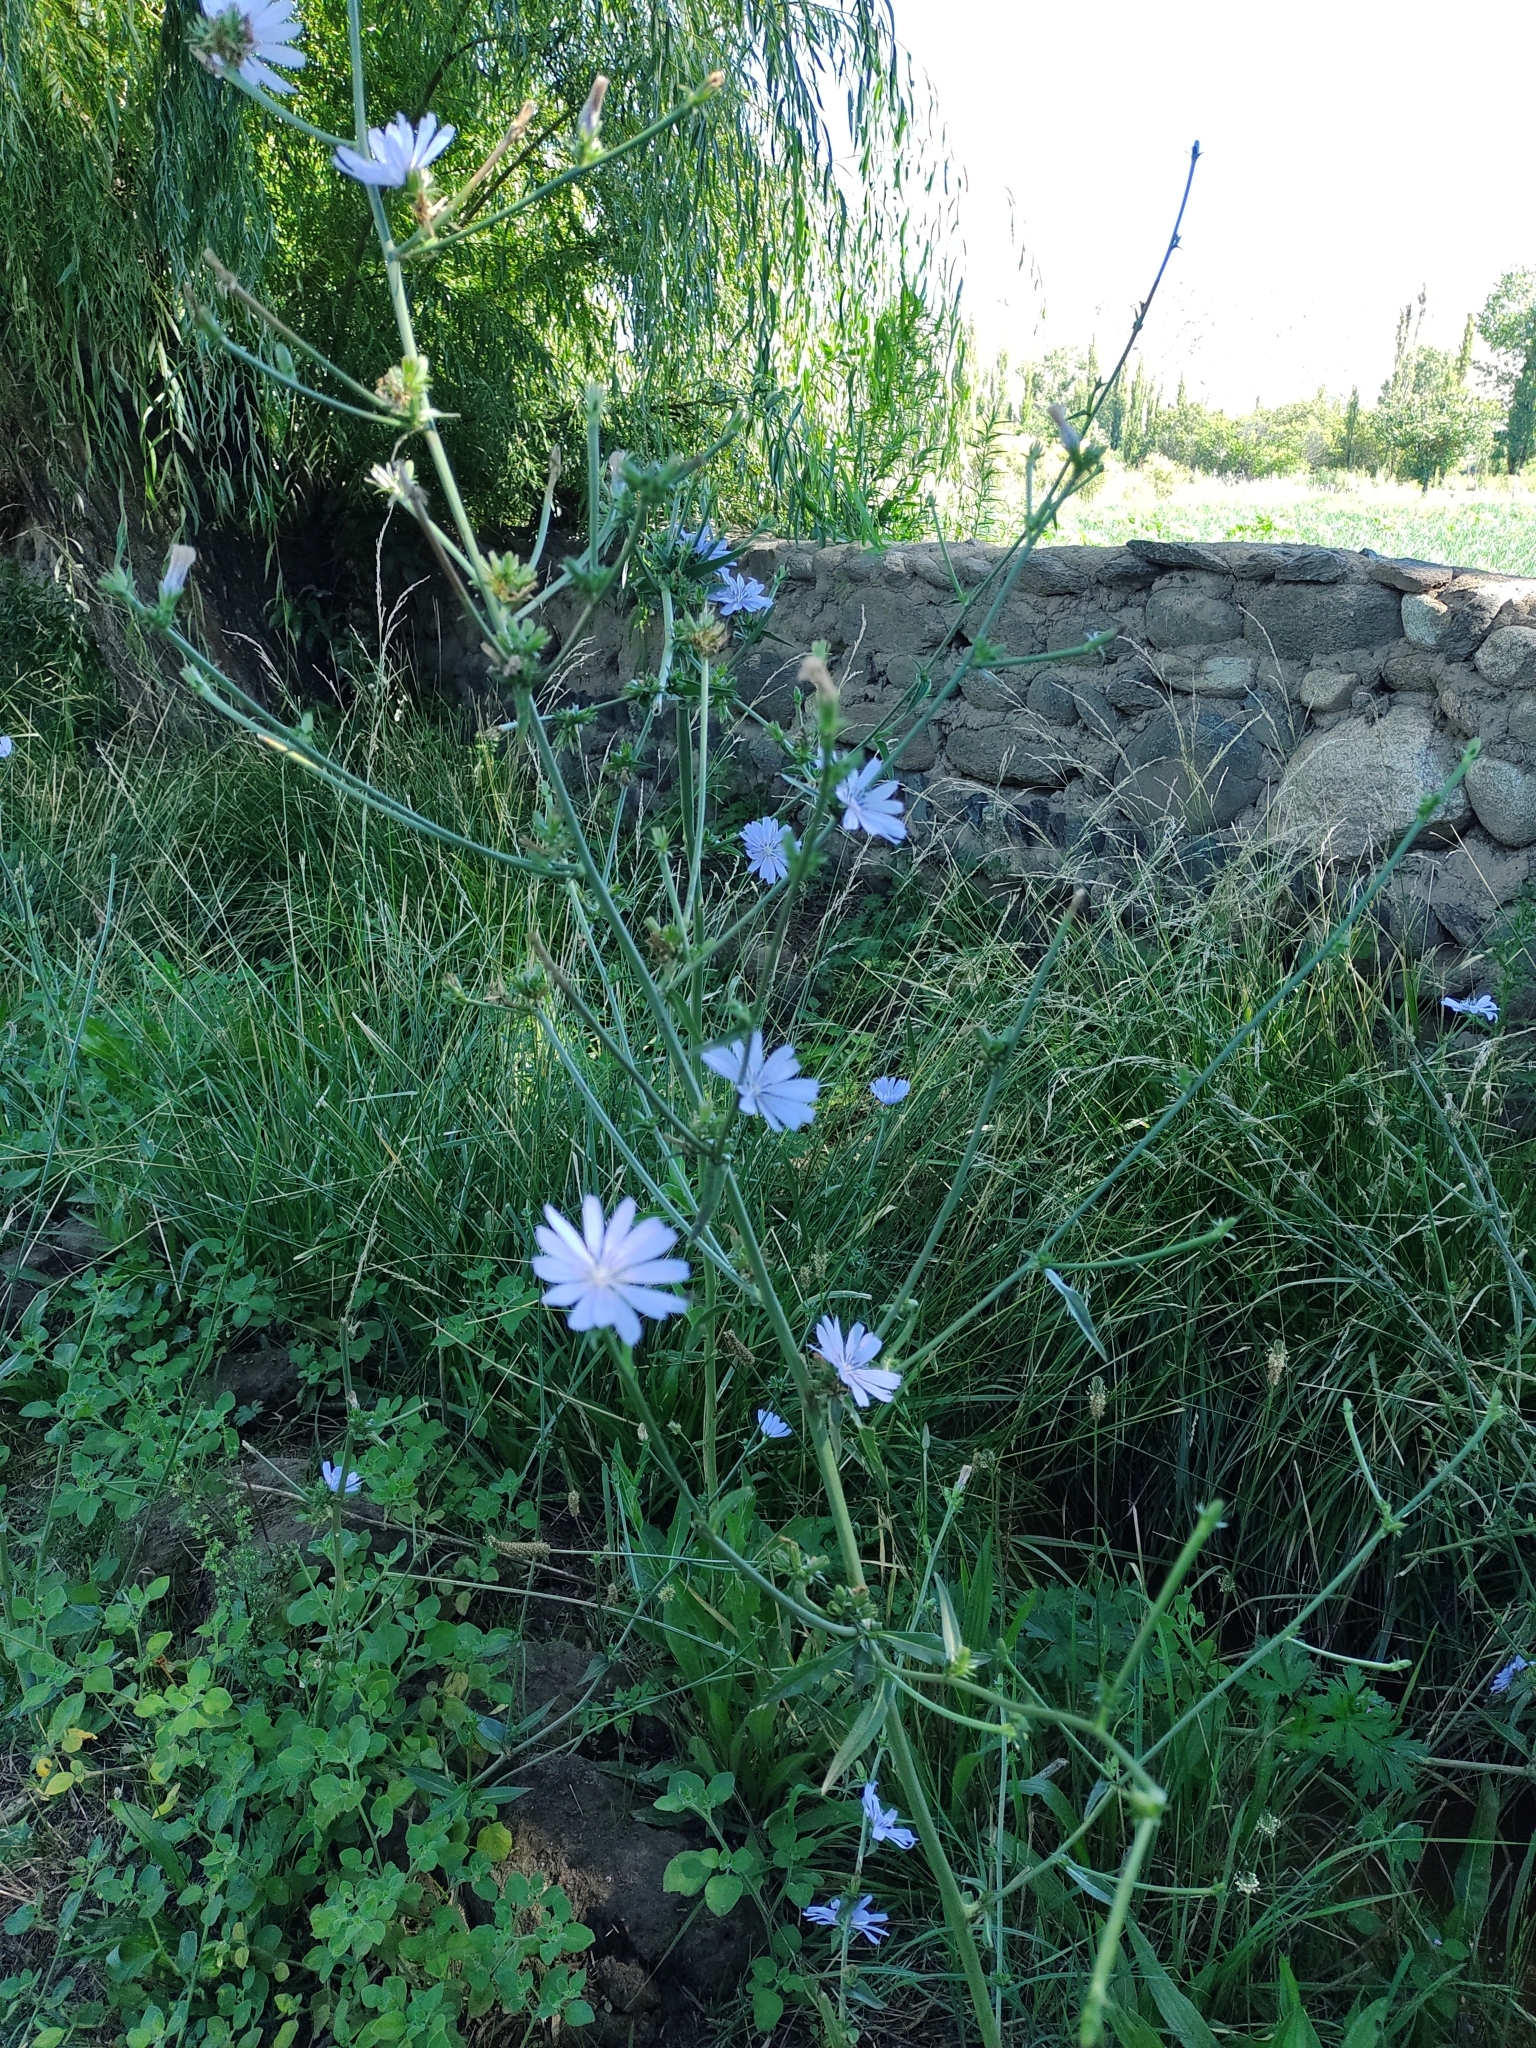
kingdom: Plantae
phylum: Tracheophyta
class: Magnoliopsida
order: Asterales
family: Asteraceae
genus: Cichorium
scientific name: Cichorium intybus
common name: Chicory
